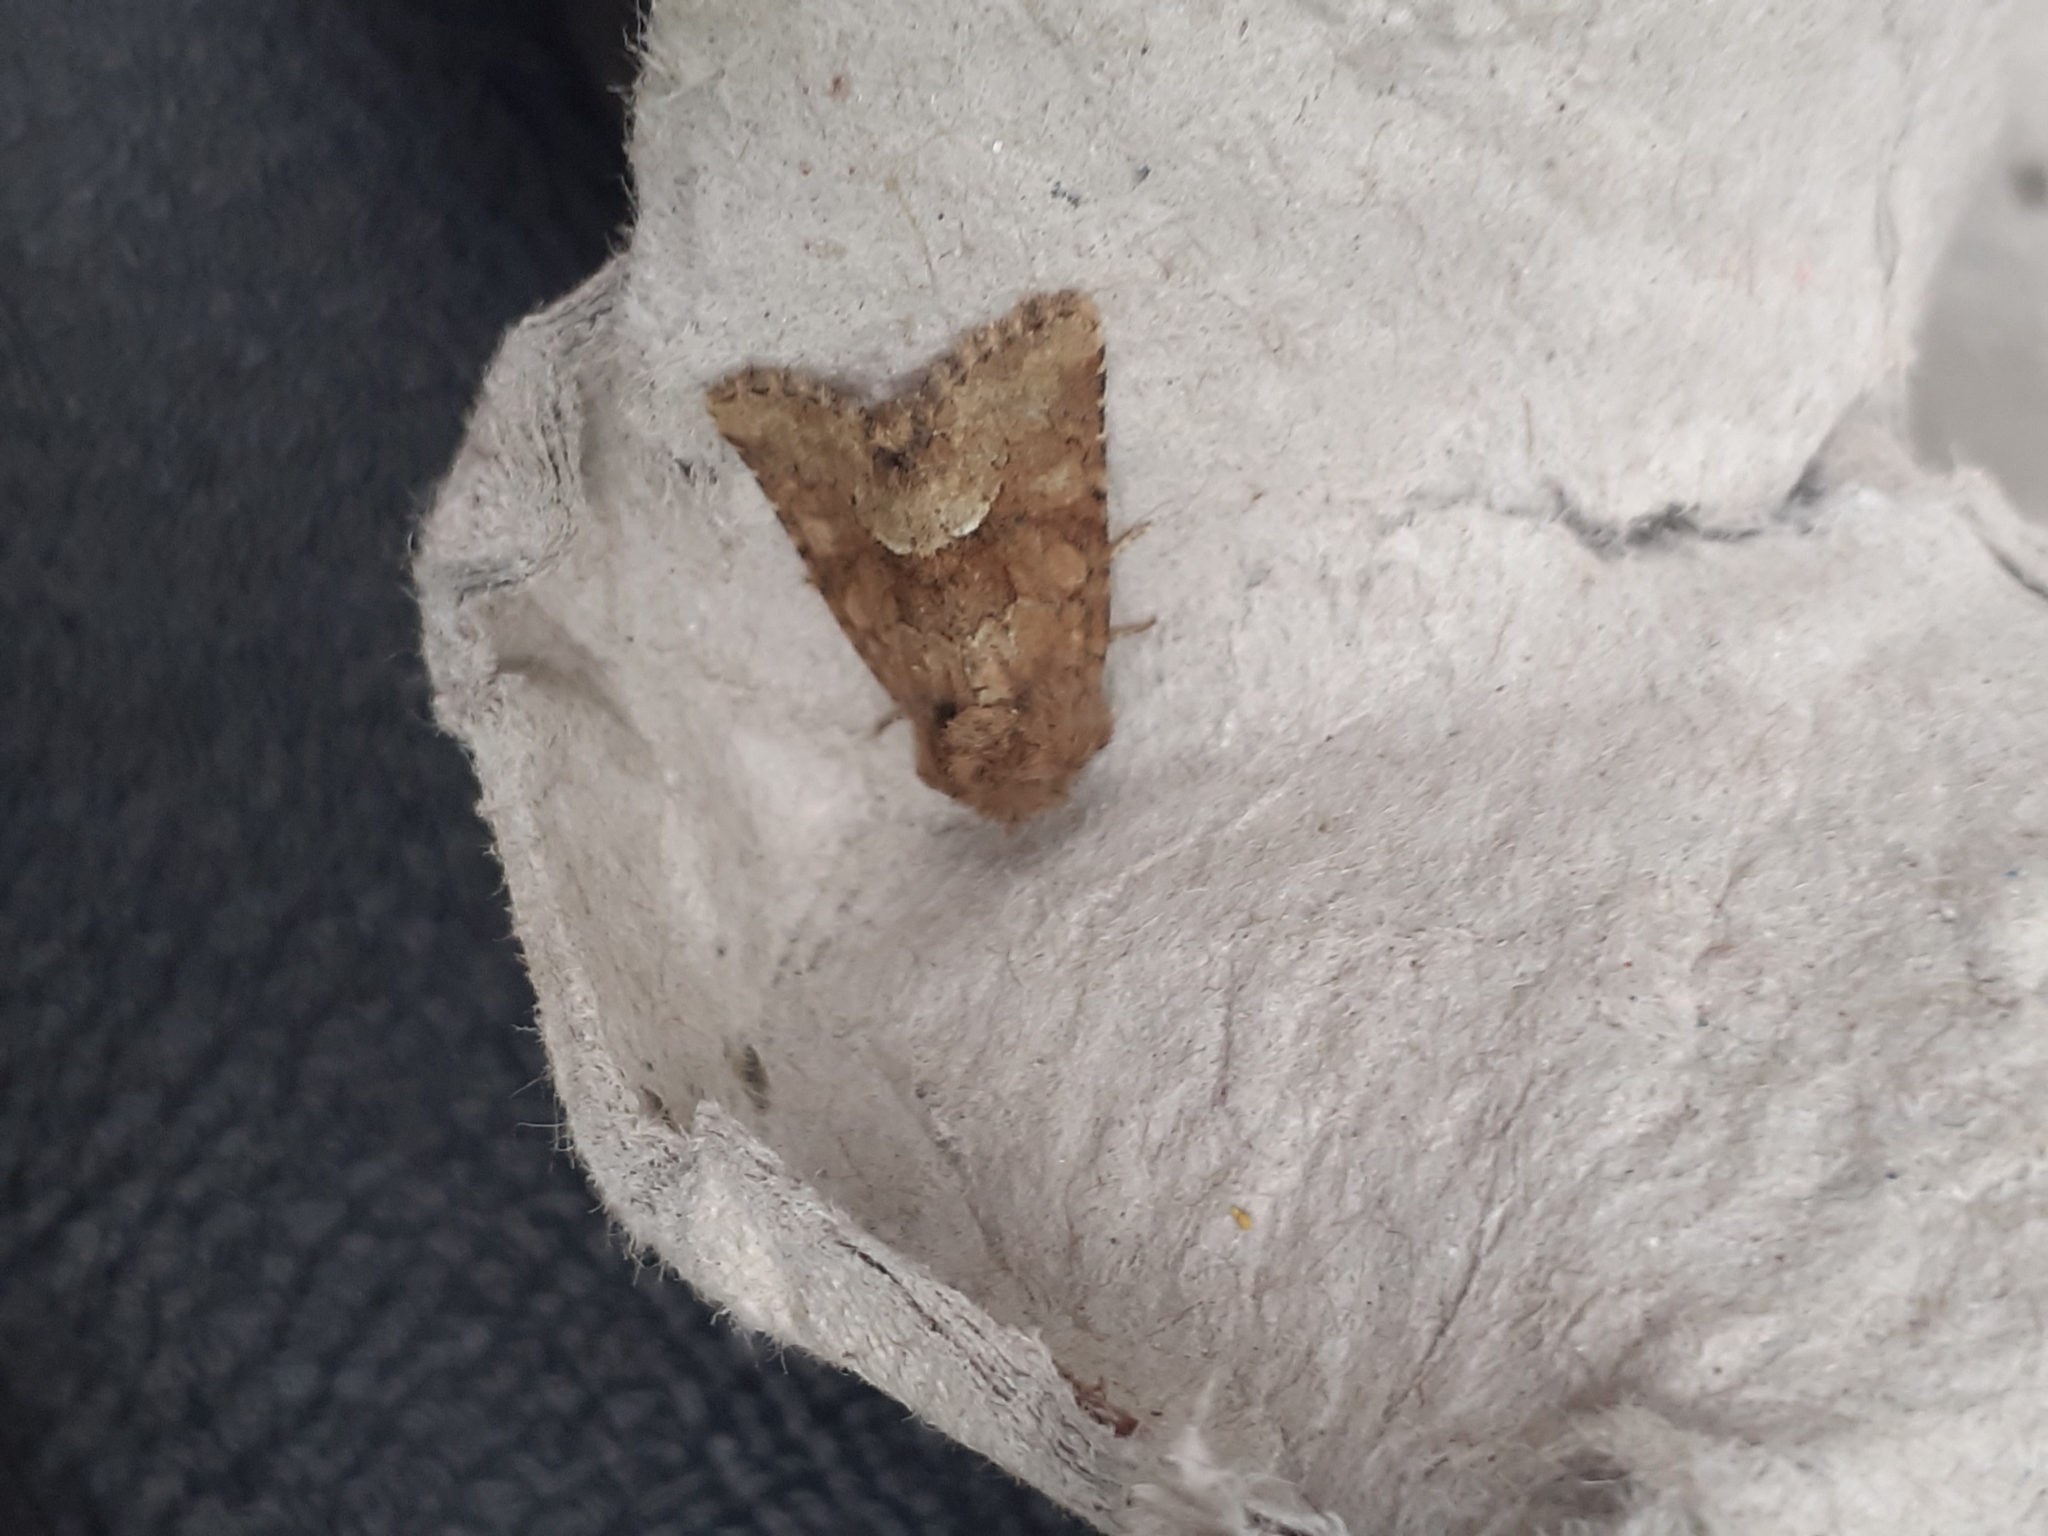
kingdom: Animalia
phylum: Arthropoda
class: Insecta
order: Lepidoptera
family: Noctuidae
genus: Oligia
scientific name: Oligia fasciuncula
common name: Middle-barred minor
